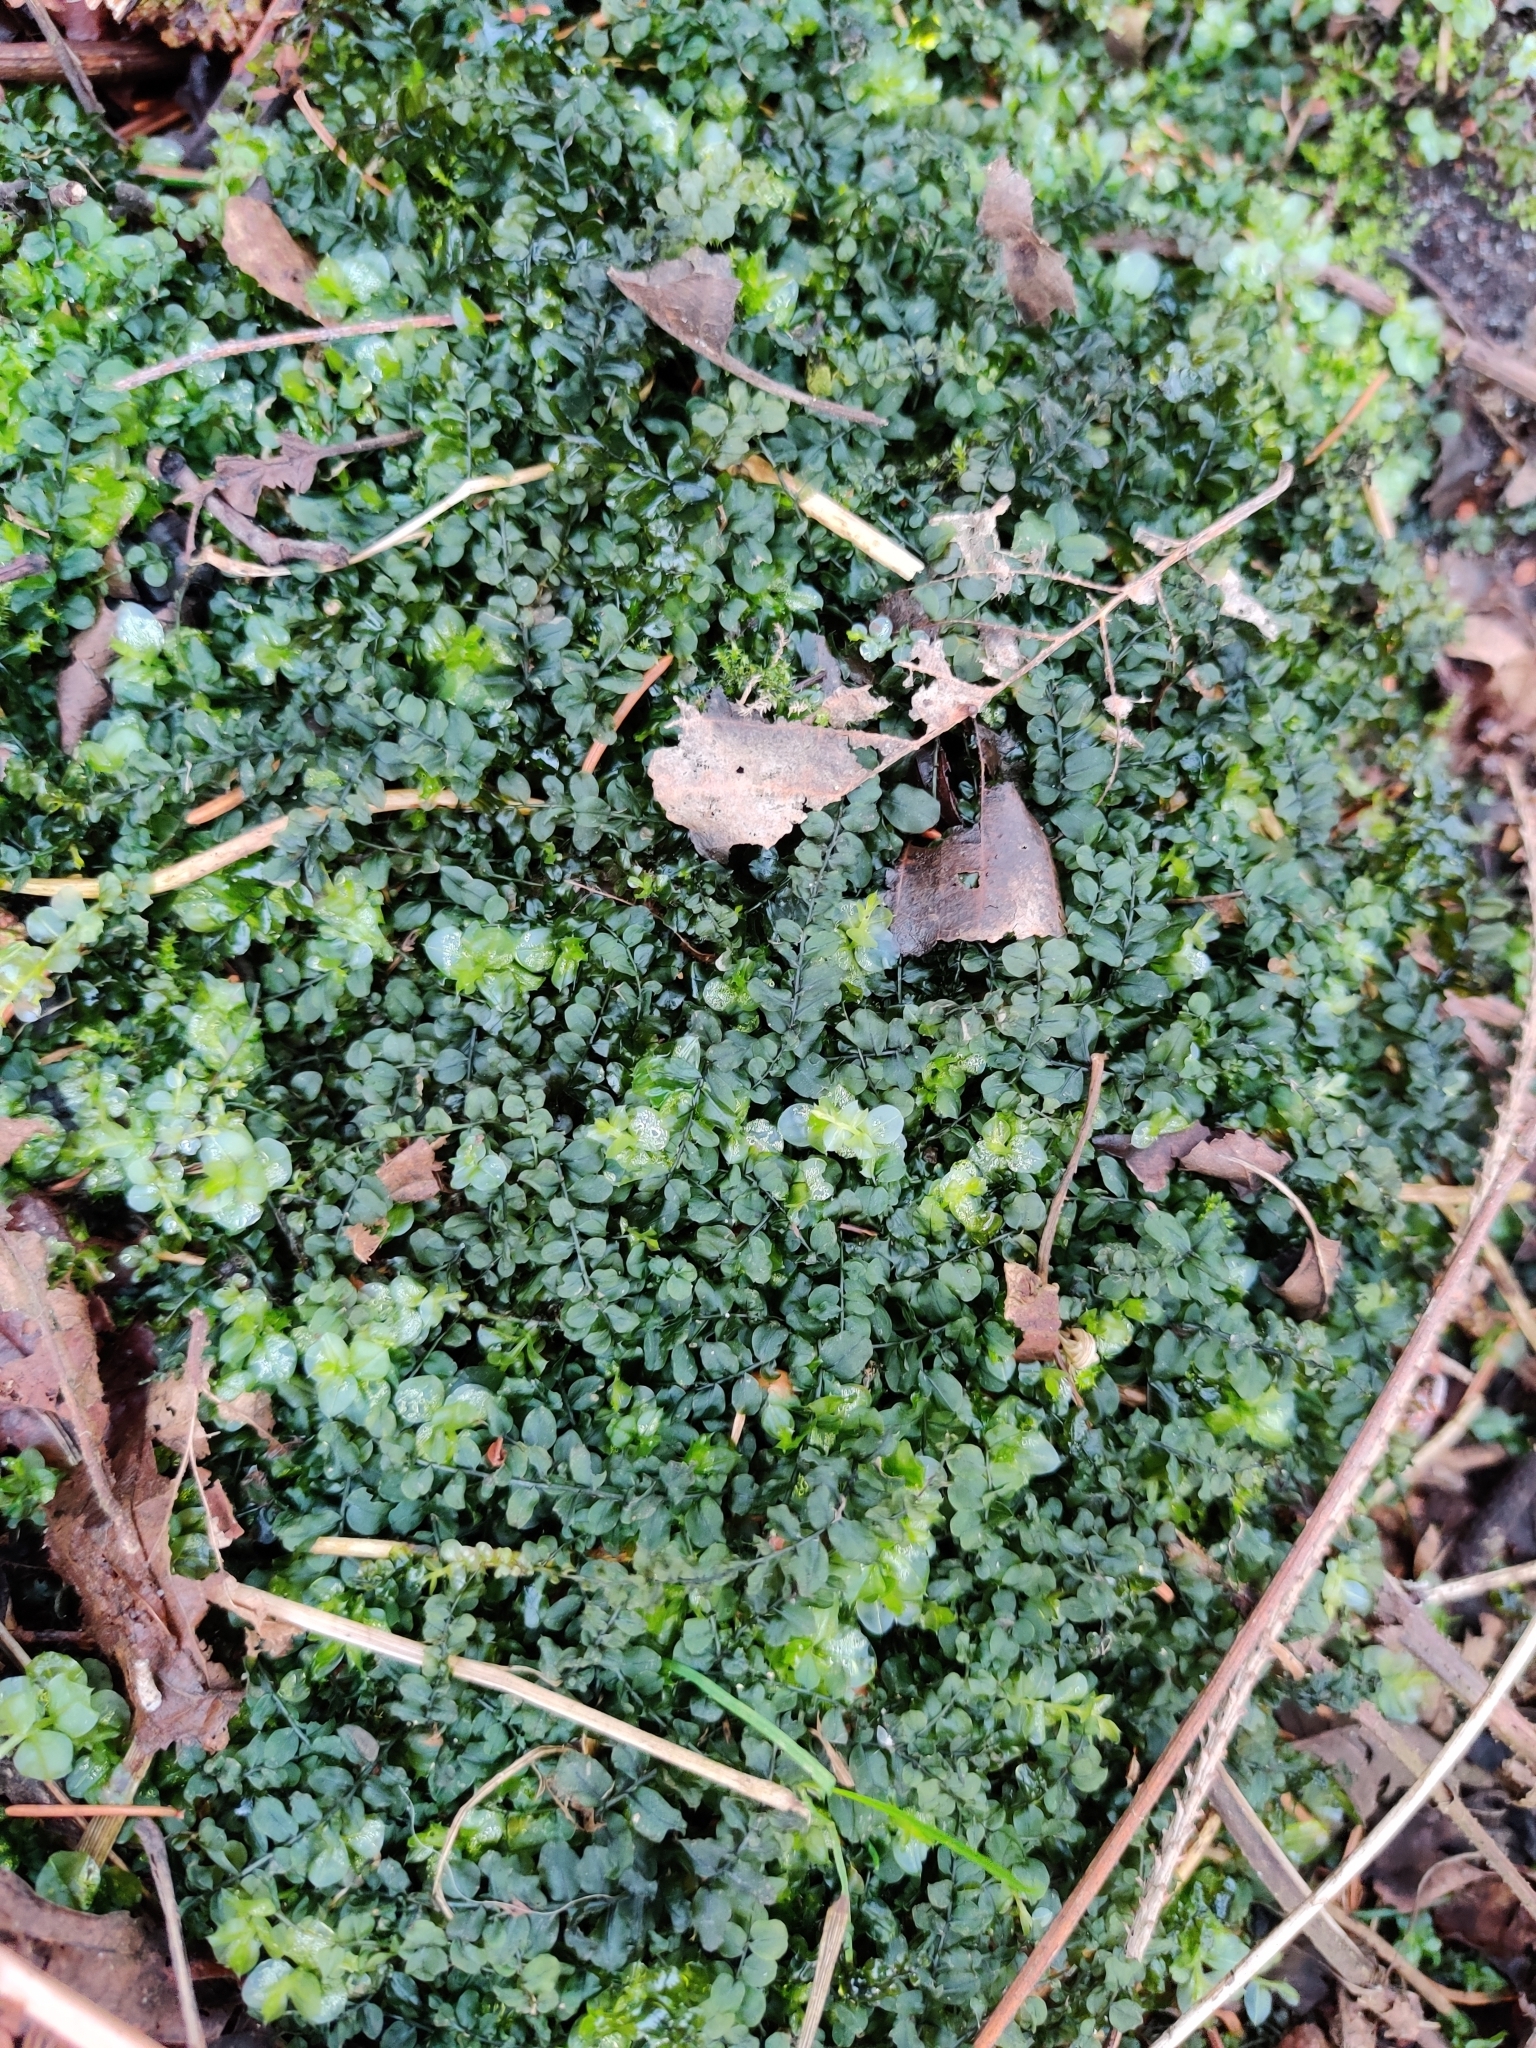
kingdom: Plantae
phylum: Bryophyta
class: Bryopsida
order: Bryales
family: Mniaceae
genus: Plagiomnium
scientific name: Plagiomnium affine
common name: Many-fruited thyme-moss
